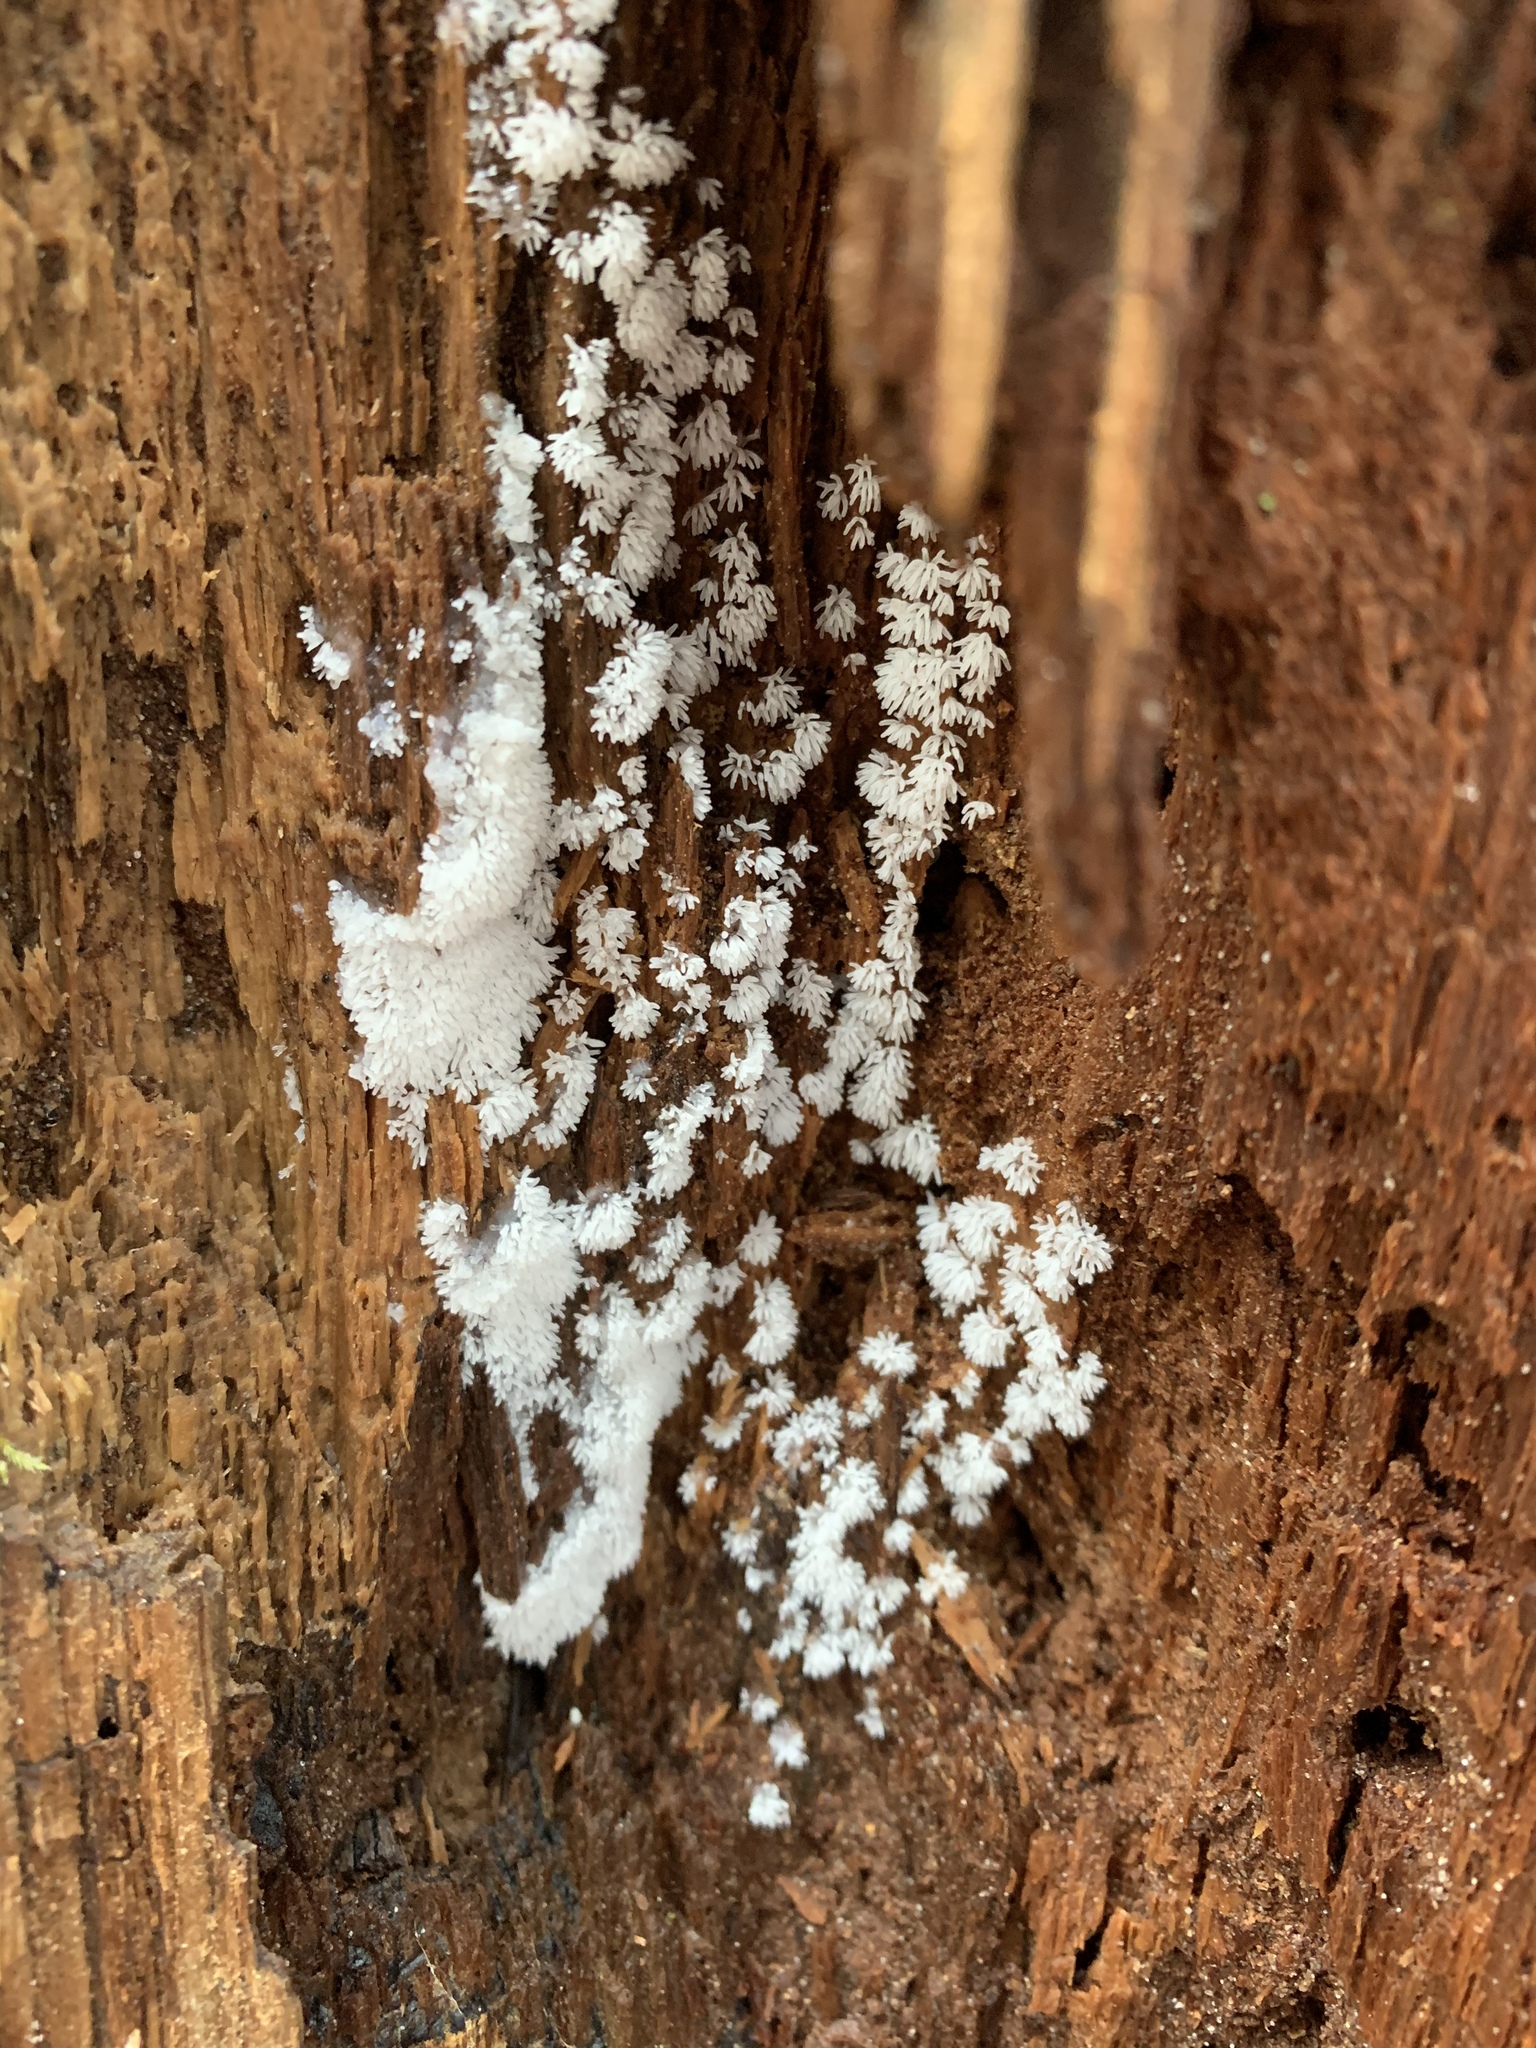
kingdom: Protozoa
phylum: Mycetozoa
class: Protosteliomycetes
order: Ceratiomyxales
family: Ceratiomyxaceae
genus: Ceratiomyxa
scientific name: Ceratiomyxa fruticulosa
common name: Honeycomb coral slime mold
